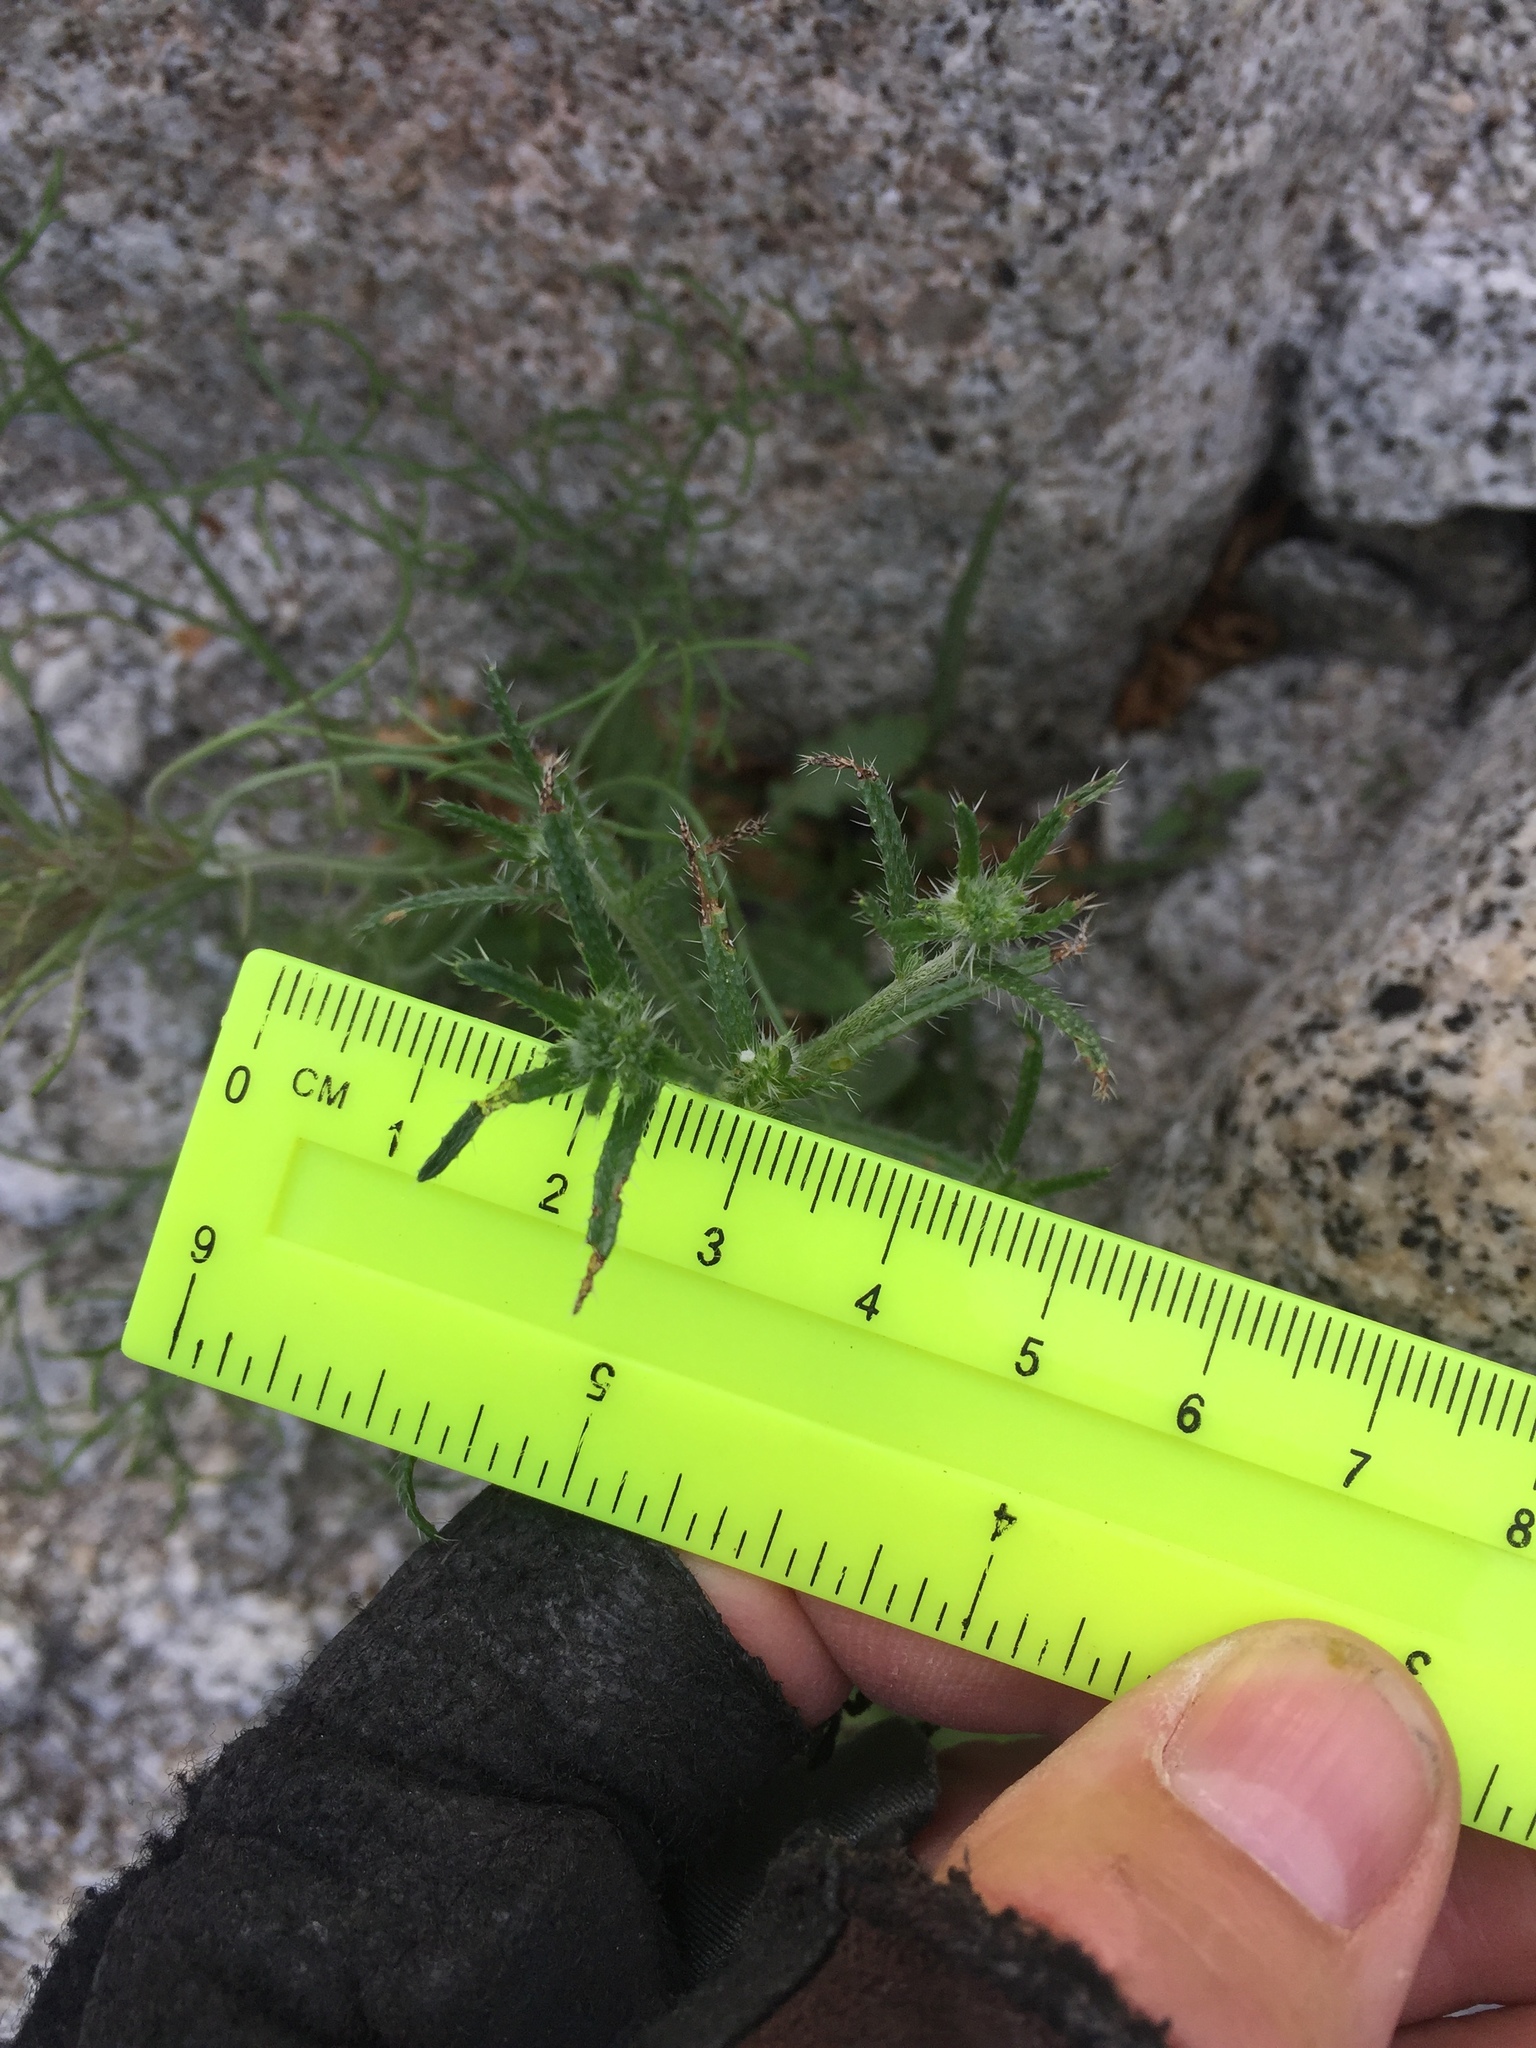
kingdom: Plantae
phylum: Tracheophyta
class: Magnoliopsida
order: Boraginales
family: Boraginaceae
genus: Cryptantha
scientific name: Cryptantha maritima
